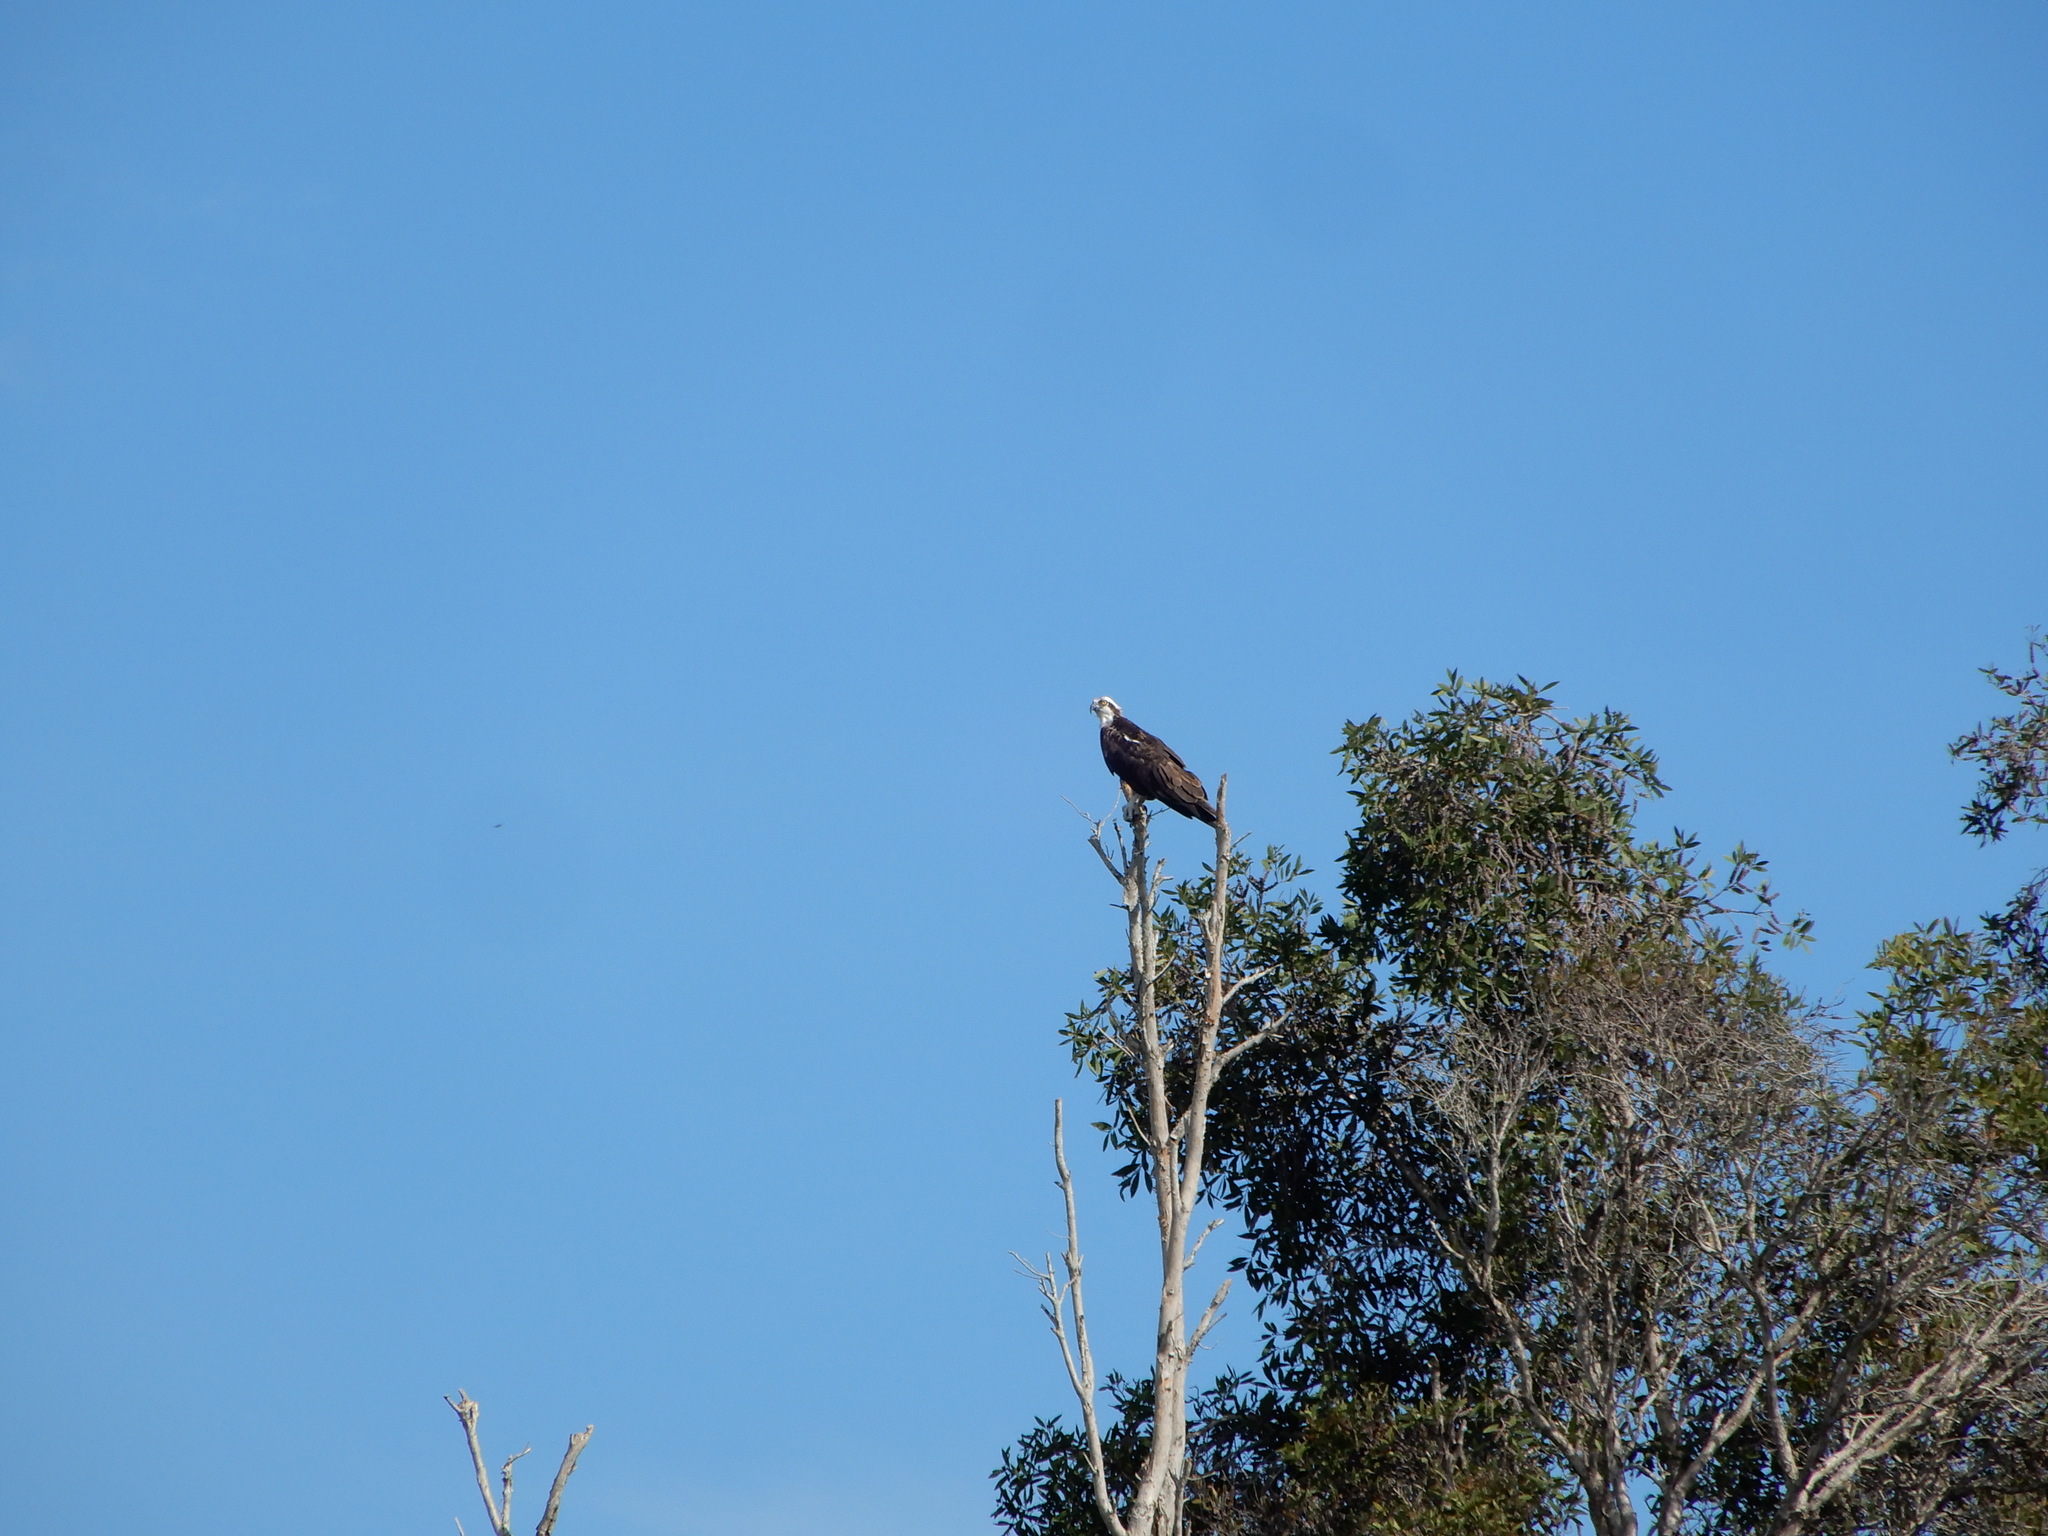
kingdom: Animalia
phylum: Chordata
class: Aves
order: Accipitriformes
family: Pandionidae
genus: Pandion
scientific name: Pandion haliaetus
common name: Osprey
